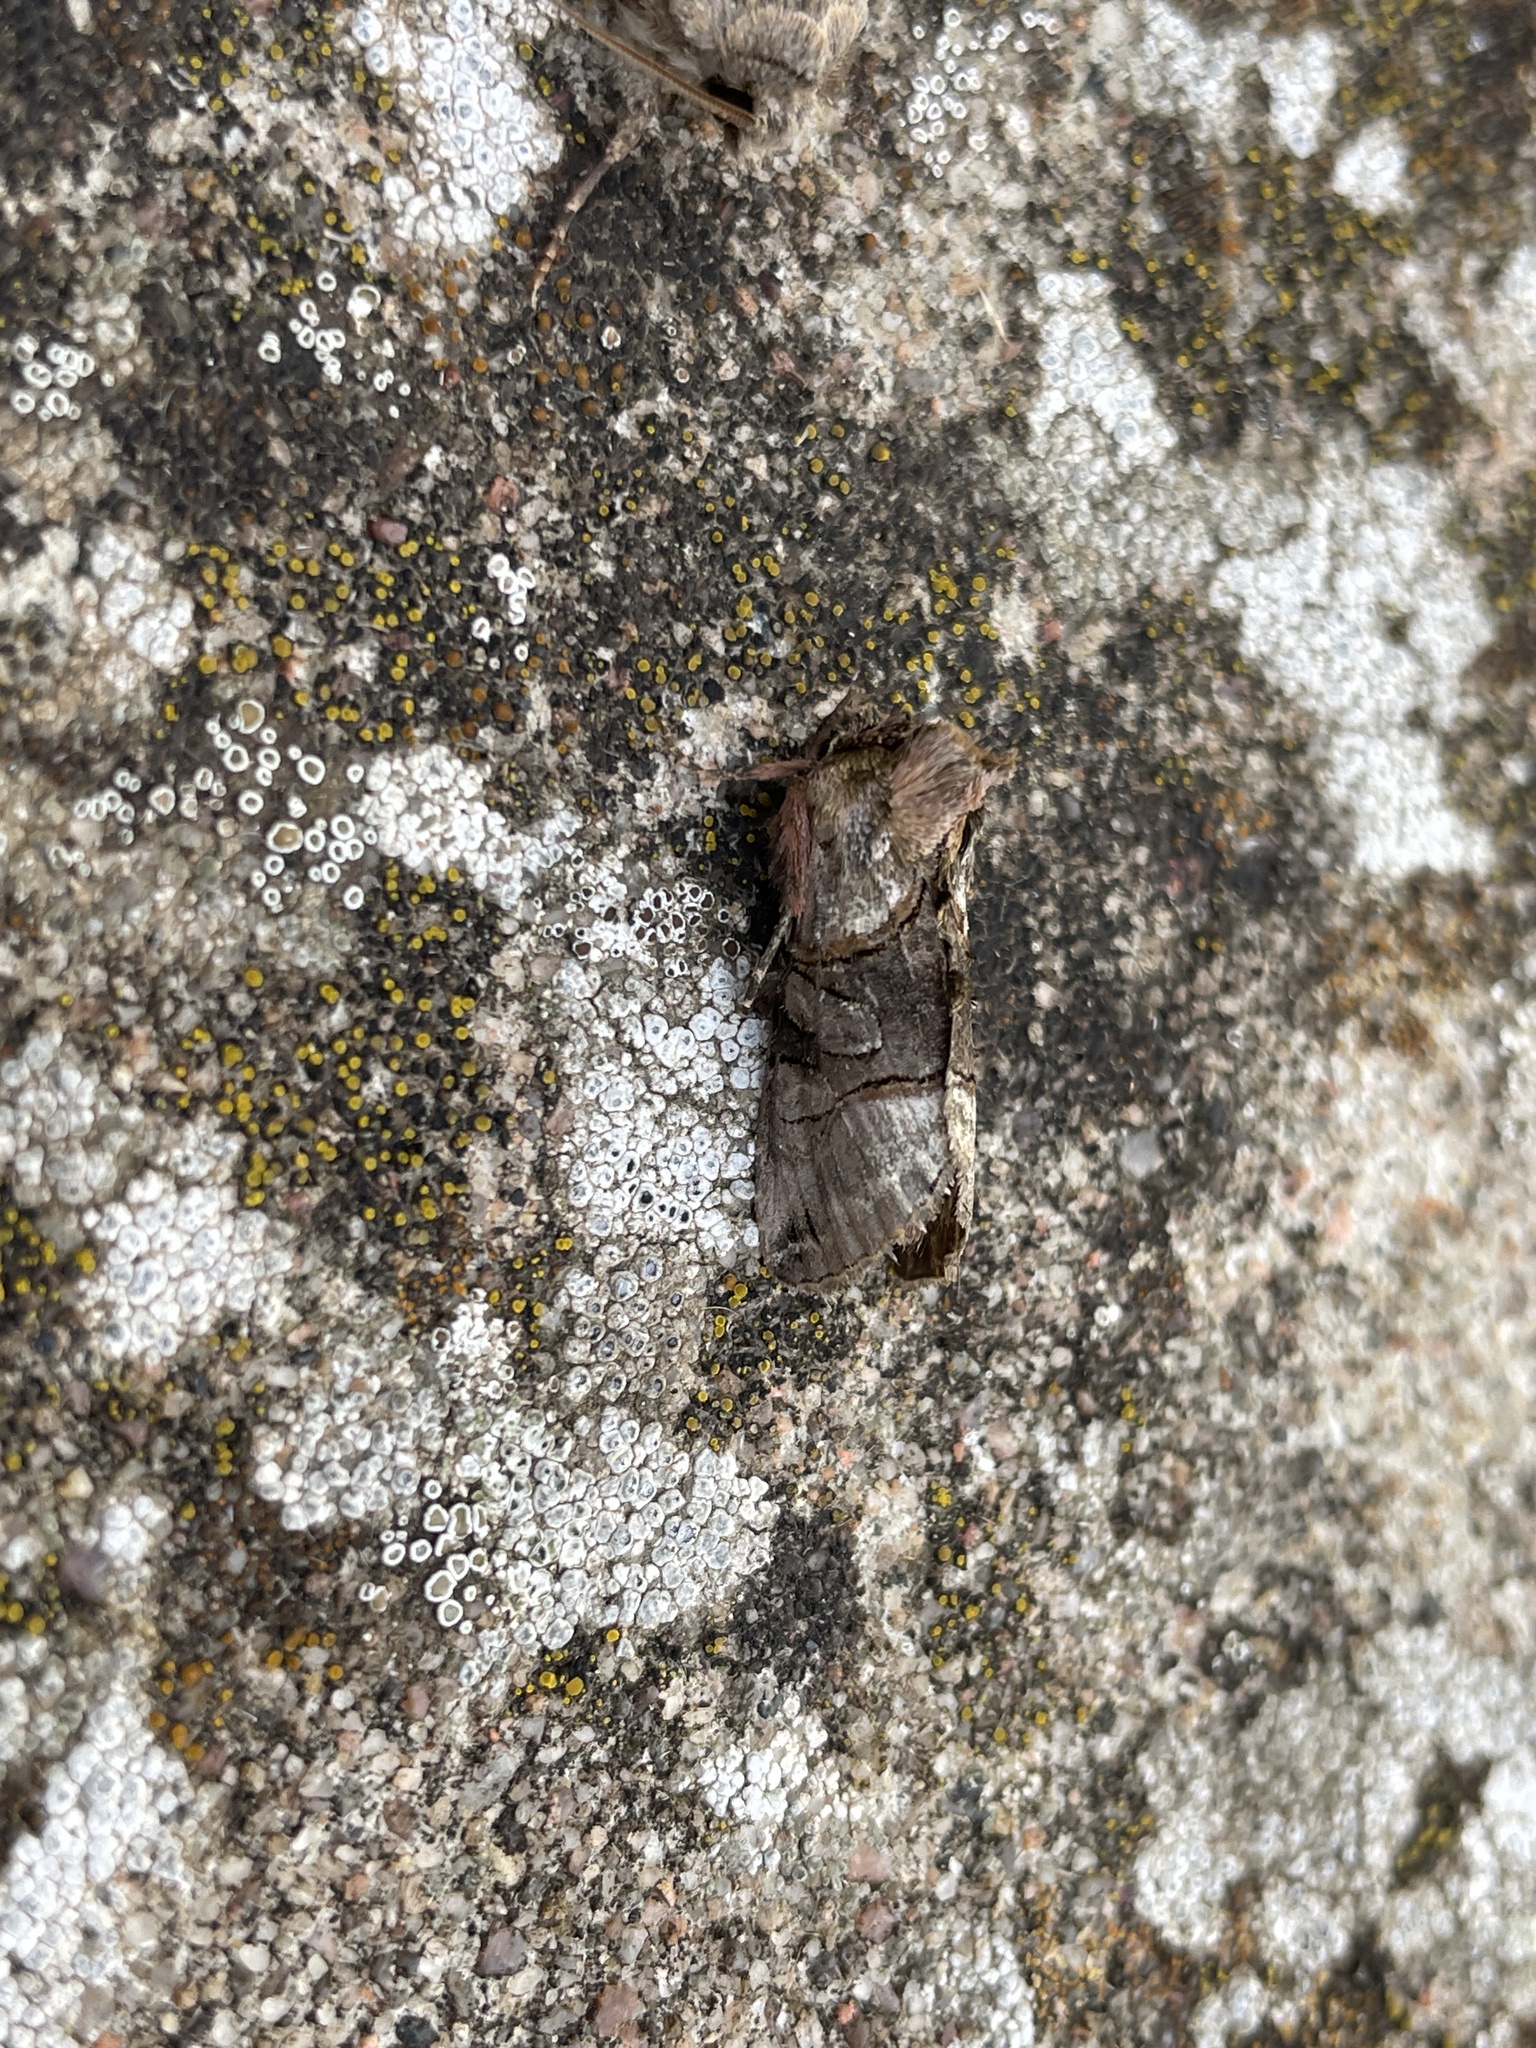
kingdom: Animalia
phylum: Arthropoda
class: Insecta
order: Lepidoptera
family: Noctuidae
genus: Abrostola
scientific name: Abrostola tripartita
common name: Spectacle
